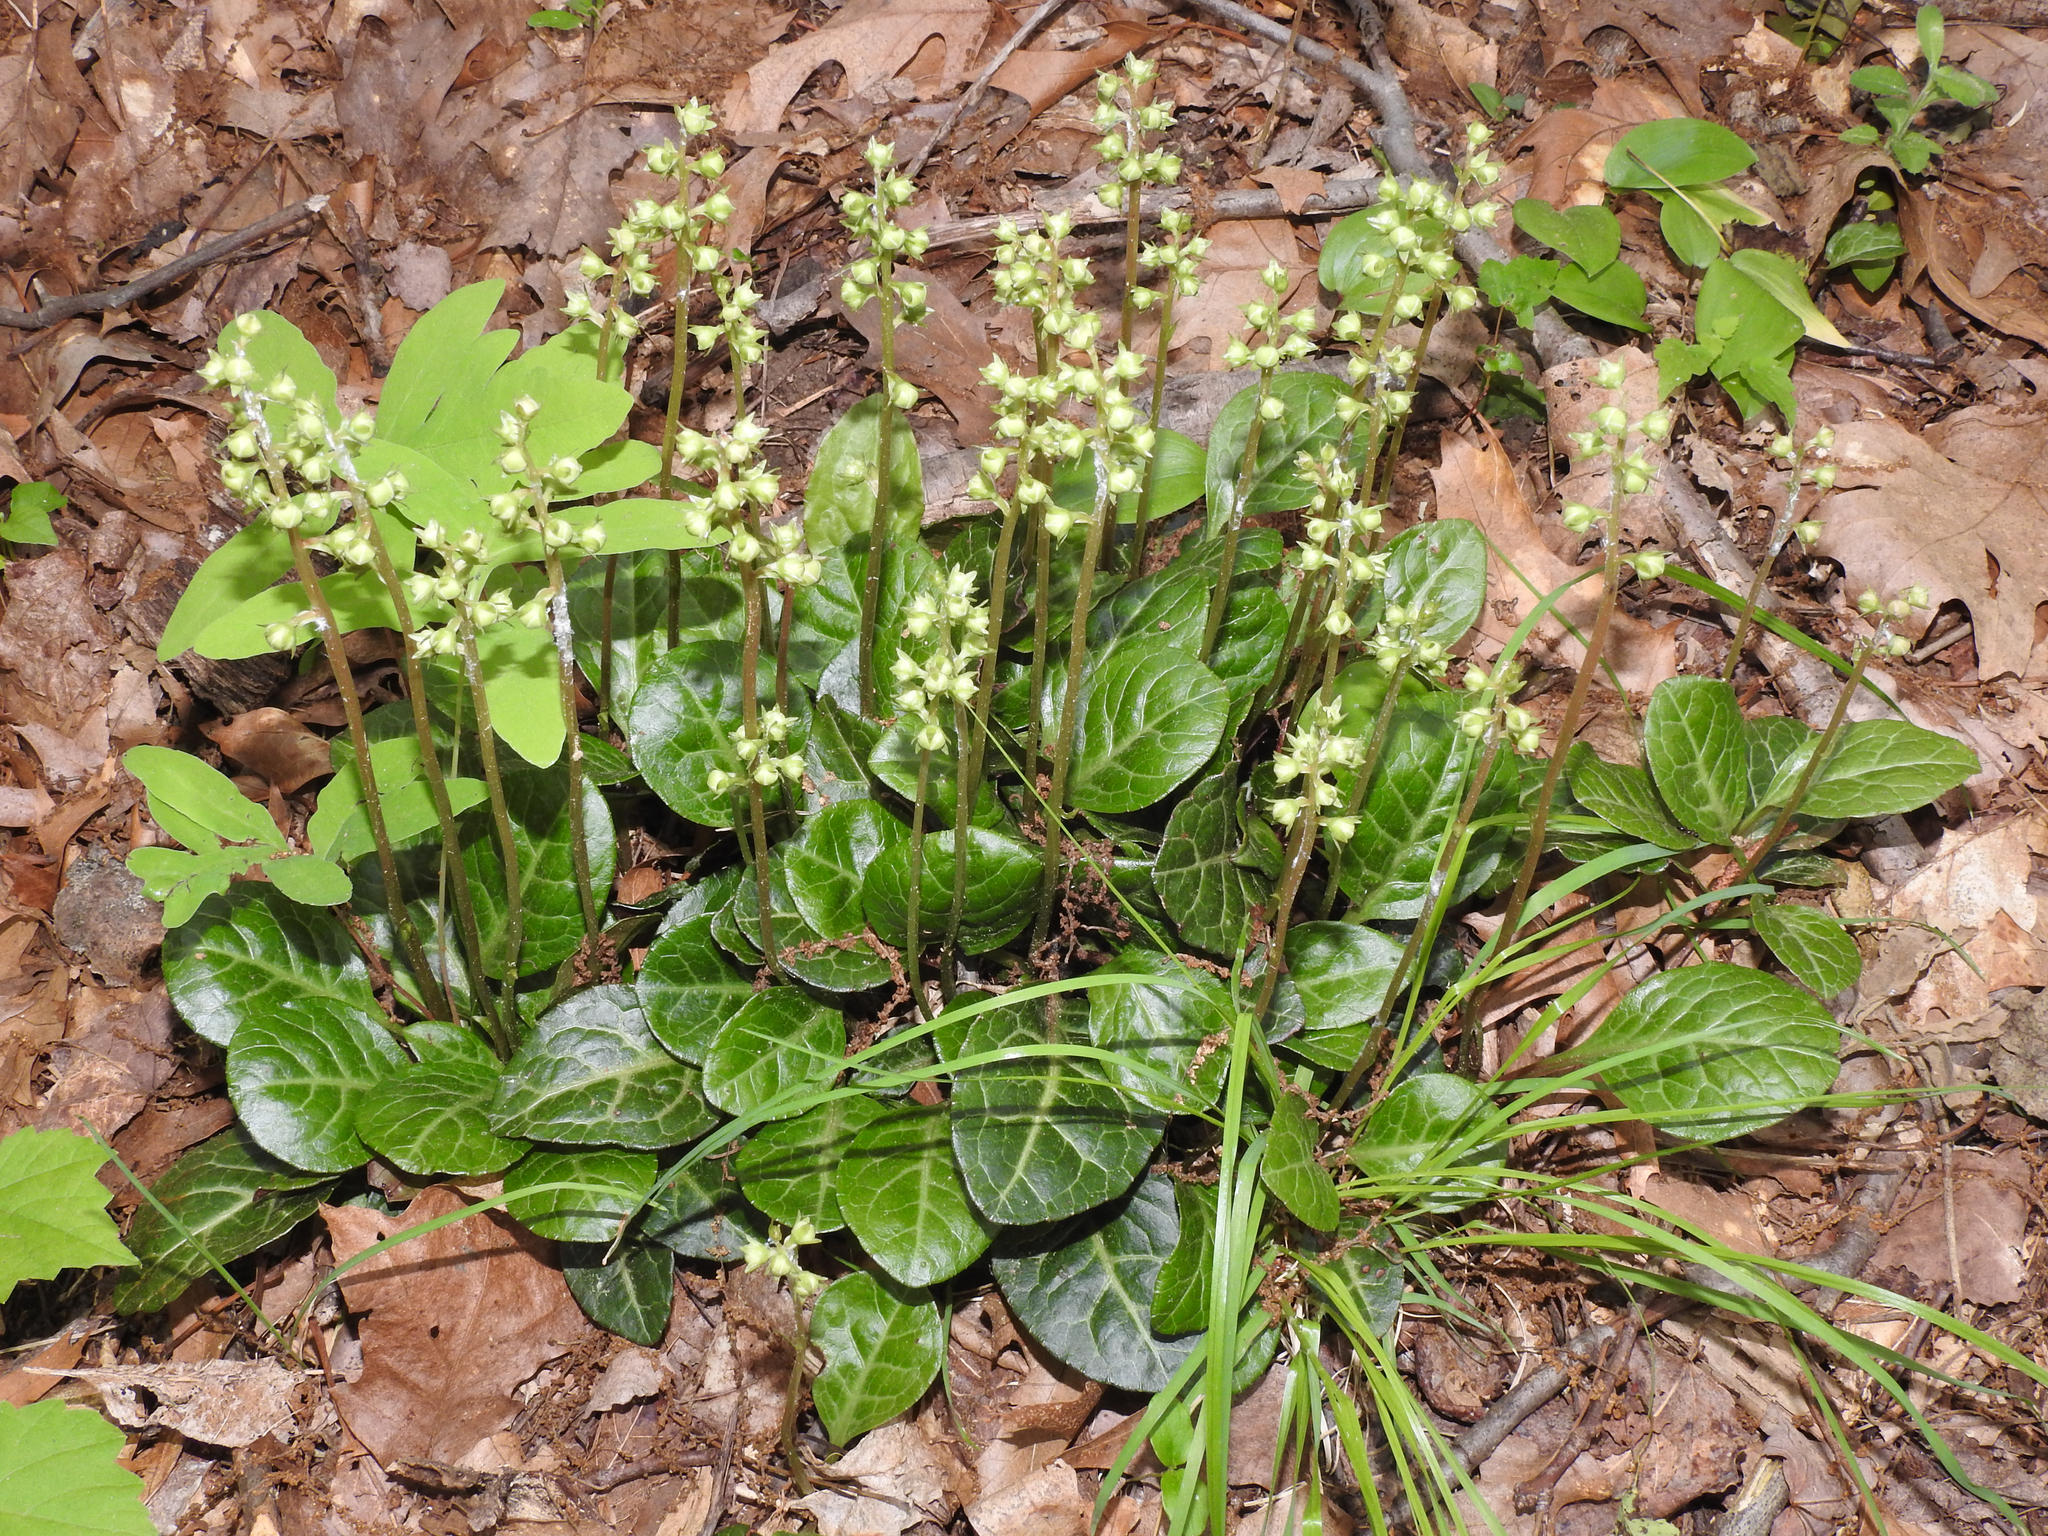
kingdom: Plantae
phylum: Tracheophyta
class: Magnoliopsida
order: Ericales
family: Ericaceae
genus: Pyrola
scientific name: Pyrola americana
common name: American wintergreen
